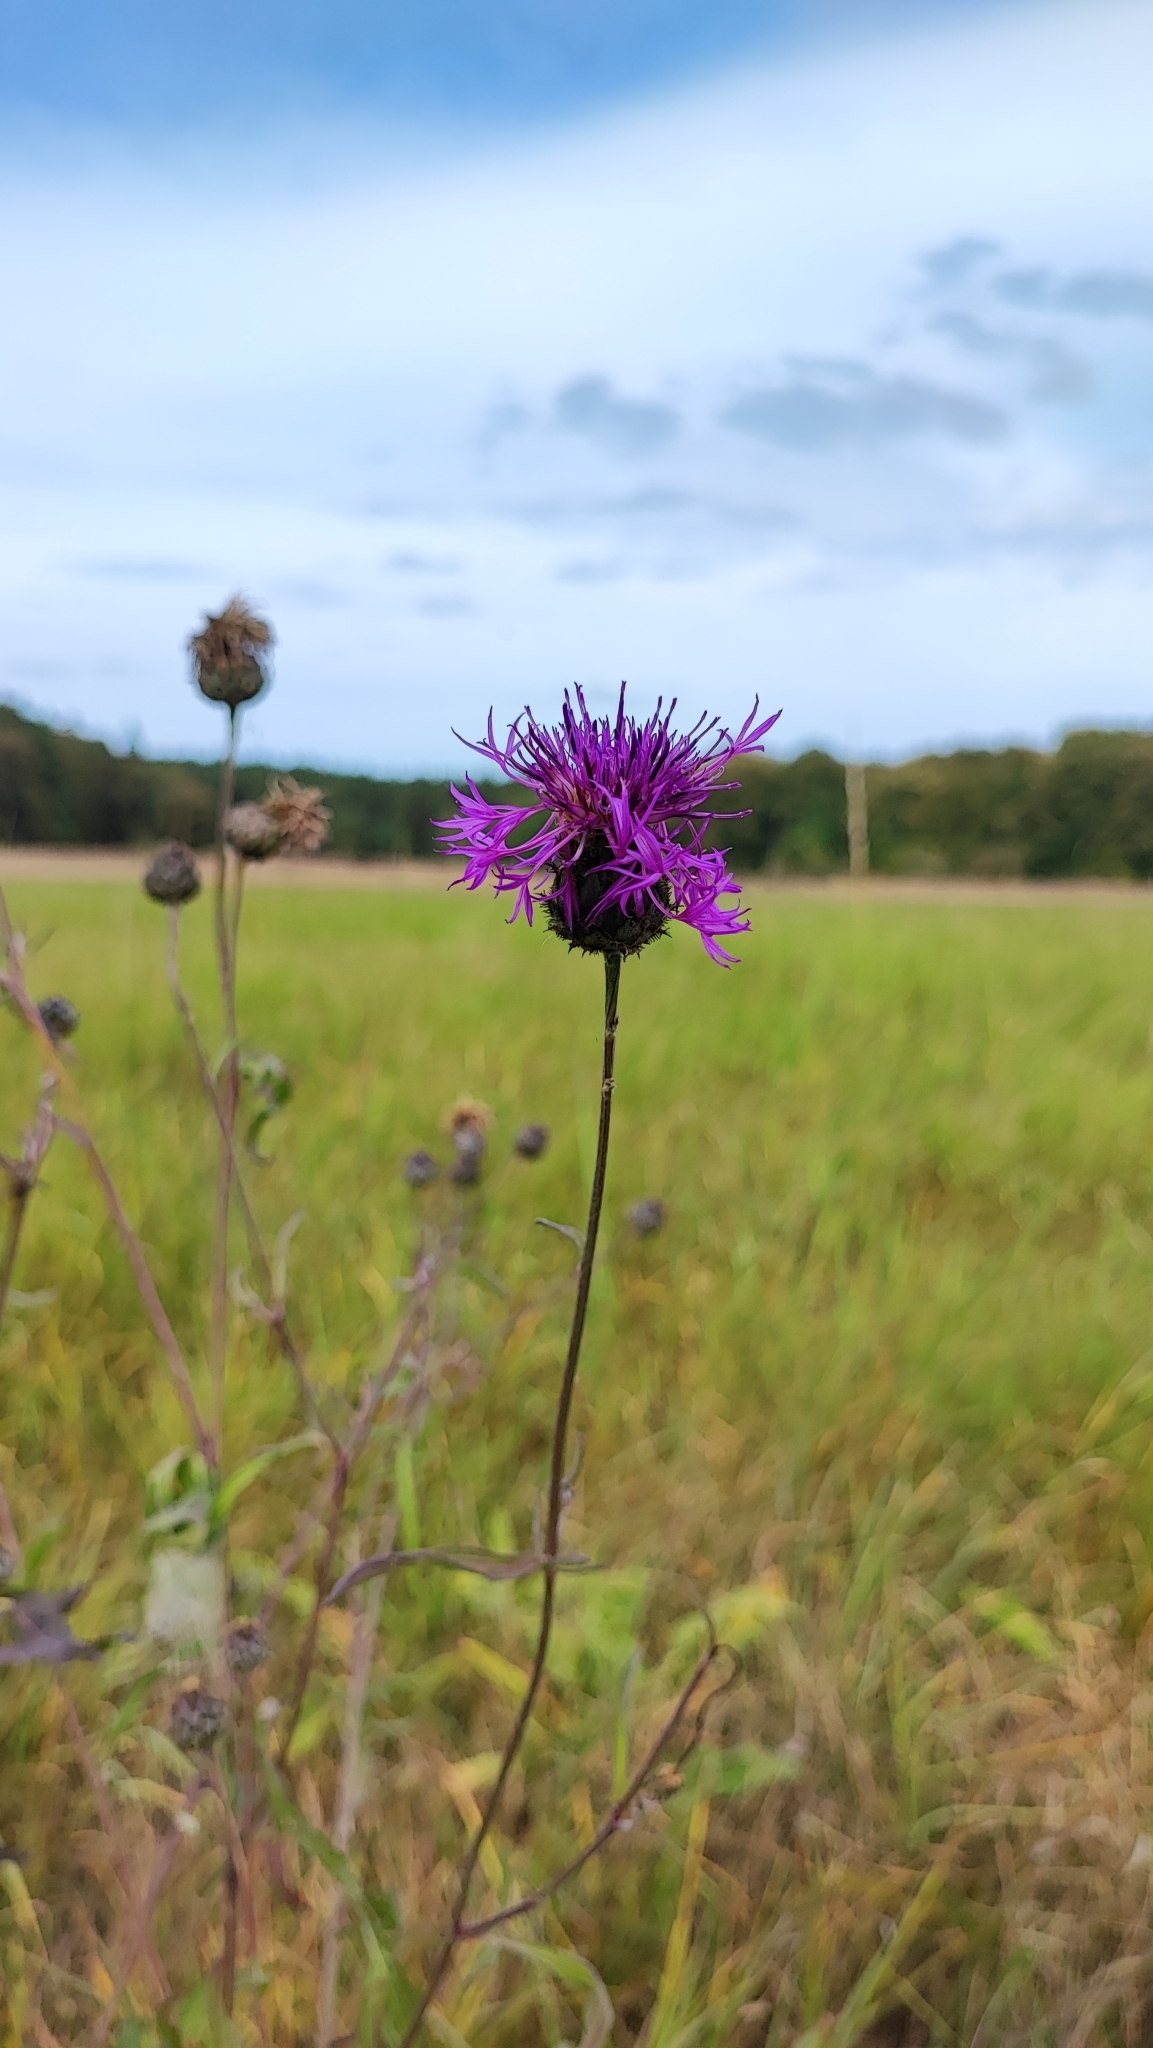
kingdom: Plantae
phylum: Tracheophyta
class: Magnoliopsida
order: Asterales
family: Asteraceae
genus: Centaurea
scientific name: Centaurea scabiosa
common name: Greater knapweed
